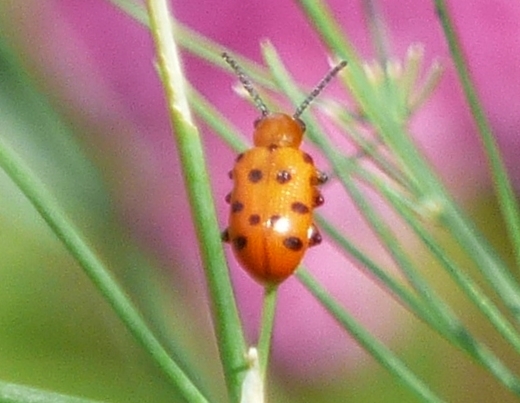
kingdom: Animalia
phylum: Arthropoda
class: Insecta
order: Coleoptera
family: Chrysomelidae
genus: Crioceris
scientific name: Crioceris duodecimpunctata
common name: Twelve-spotted asparagus beetle
